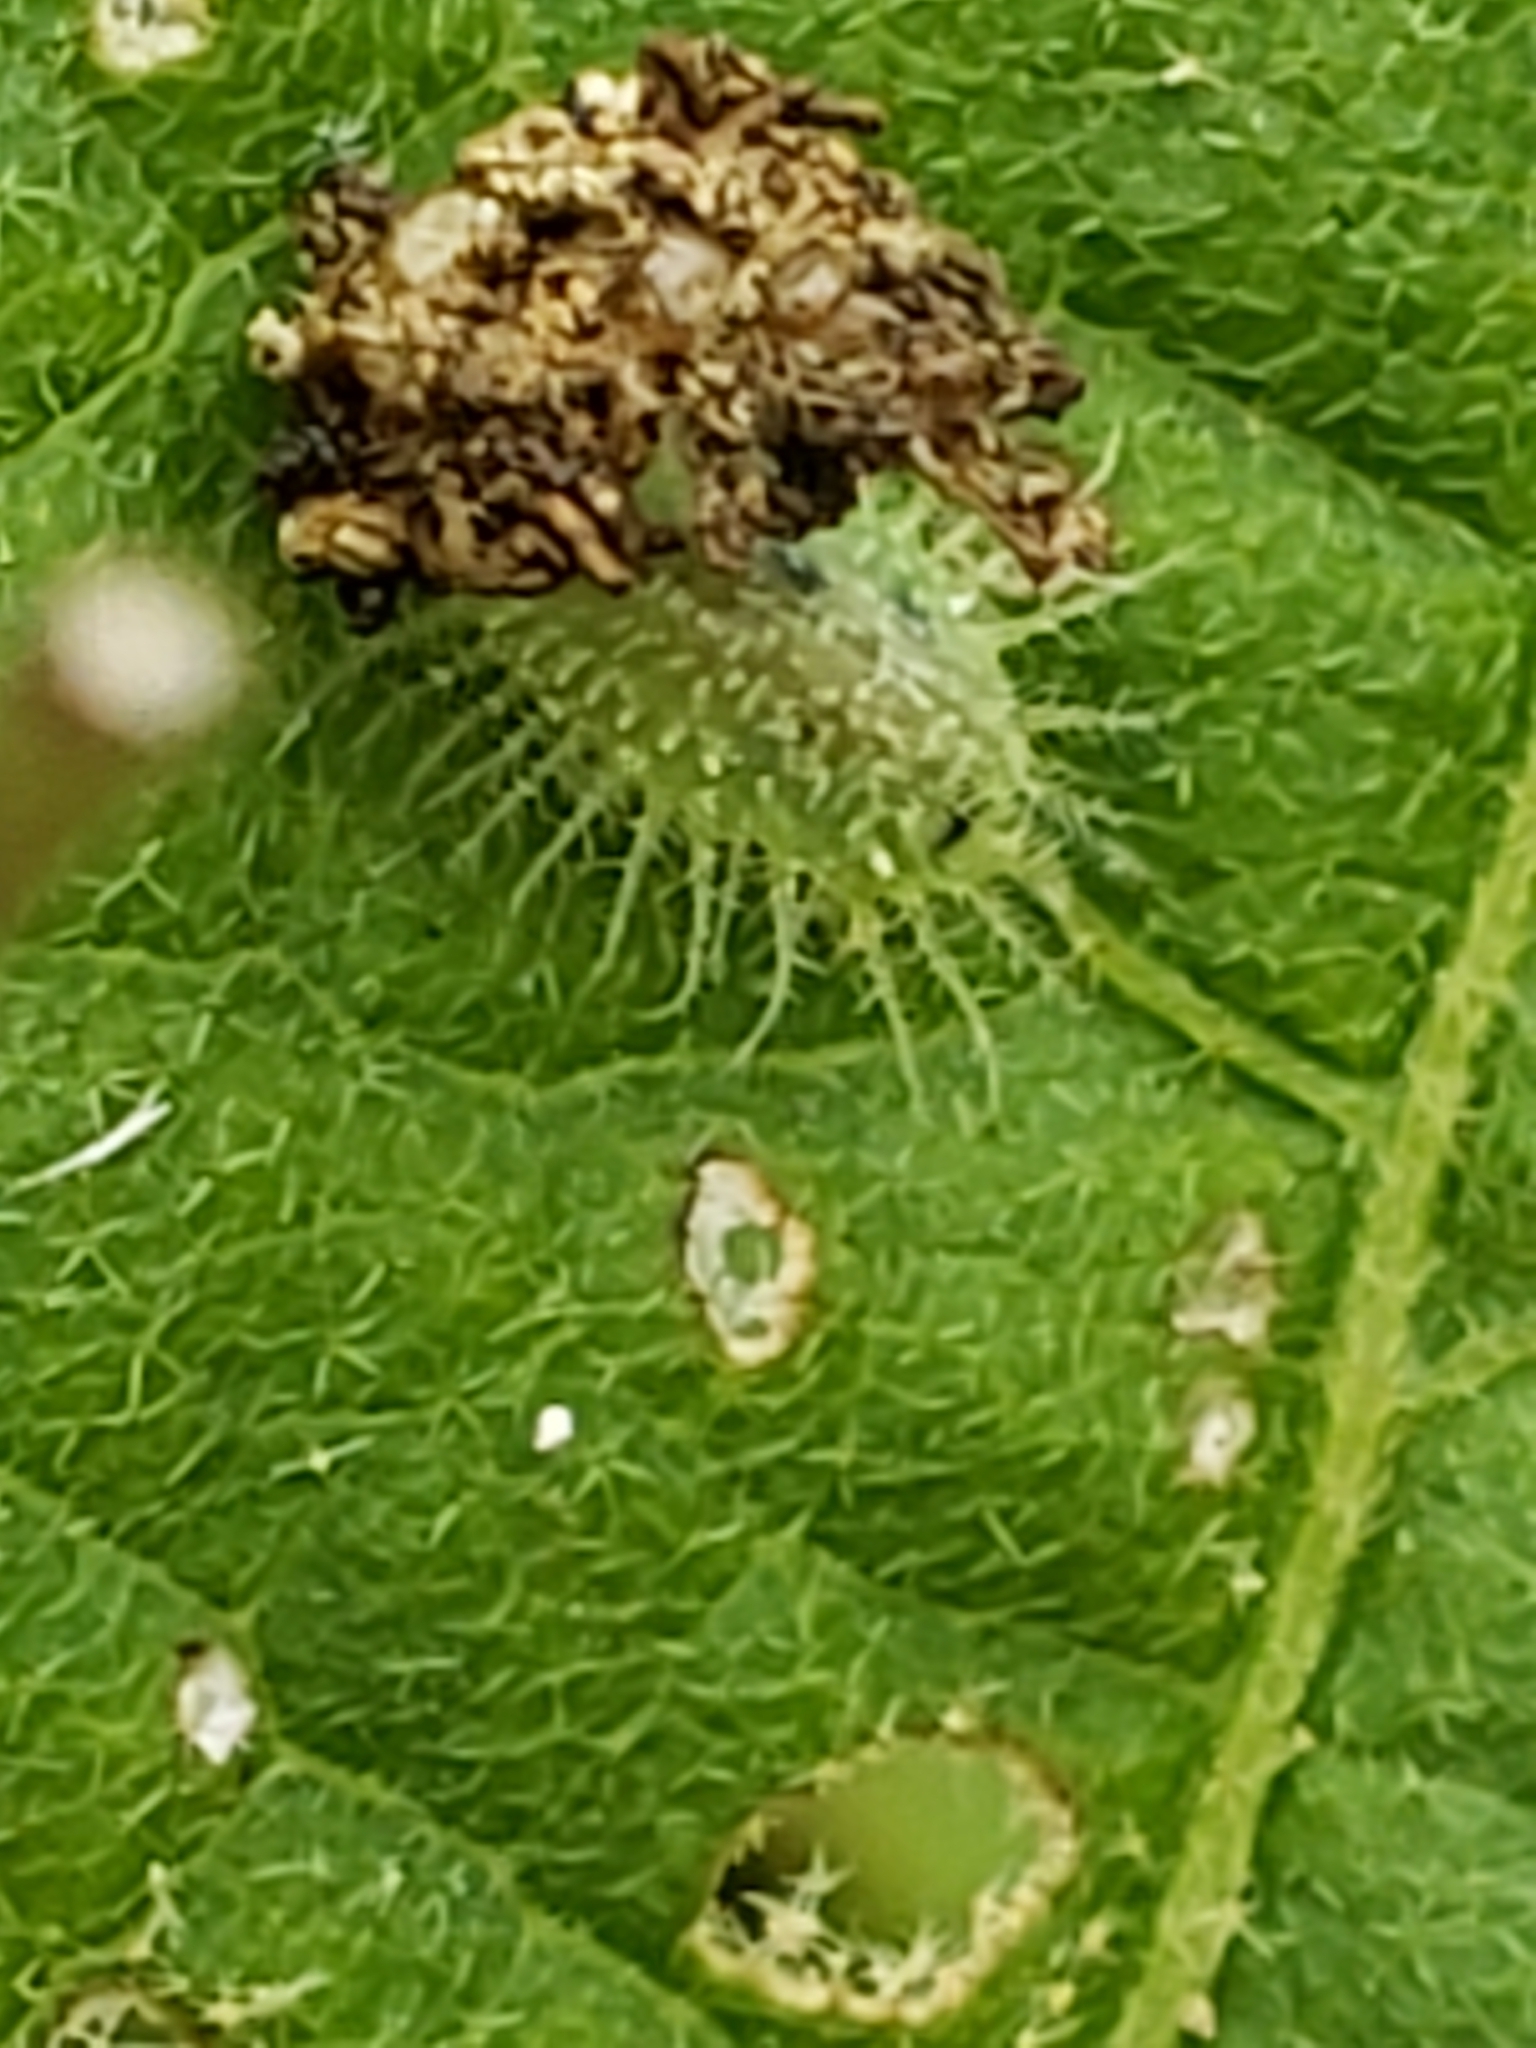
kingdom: Animalia
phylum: Arthropoda
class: Insecta
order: Coleoptera
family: Chrysomelidae
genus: Helocassis
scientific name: Helocassis clavata
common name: Clavate tortoise beetle
